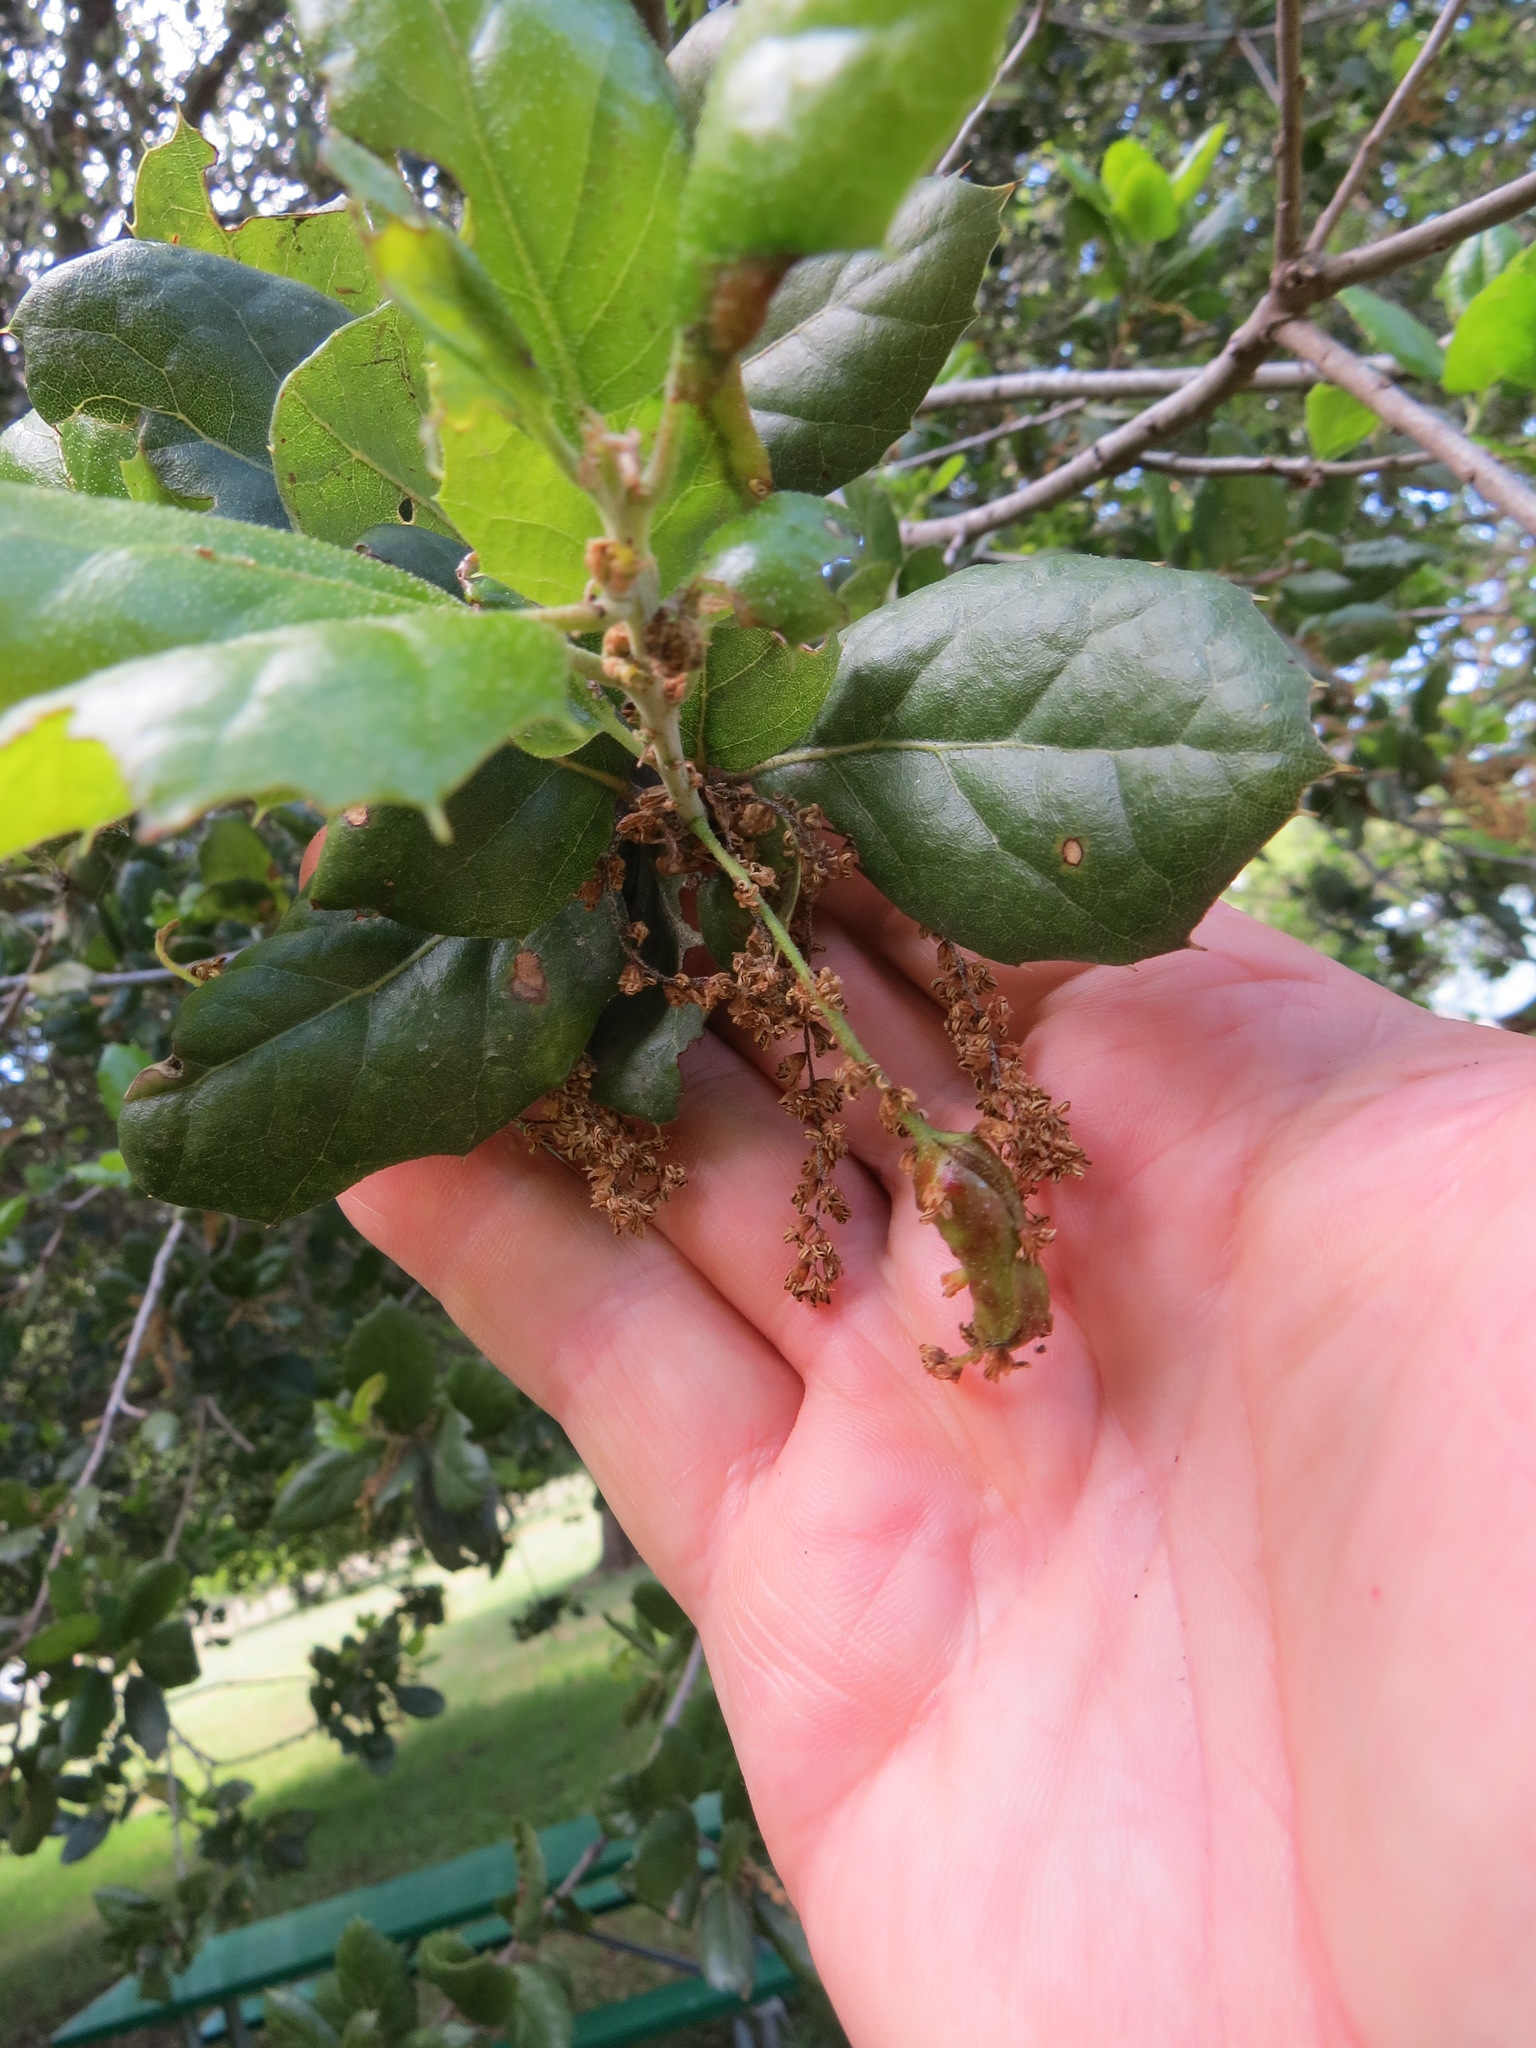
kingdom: Animalia
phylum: Arthropoda
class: Insecta
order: Hymenoptera
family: Cynipidae
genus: Callirhytis
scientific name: Callirhytis
